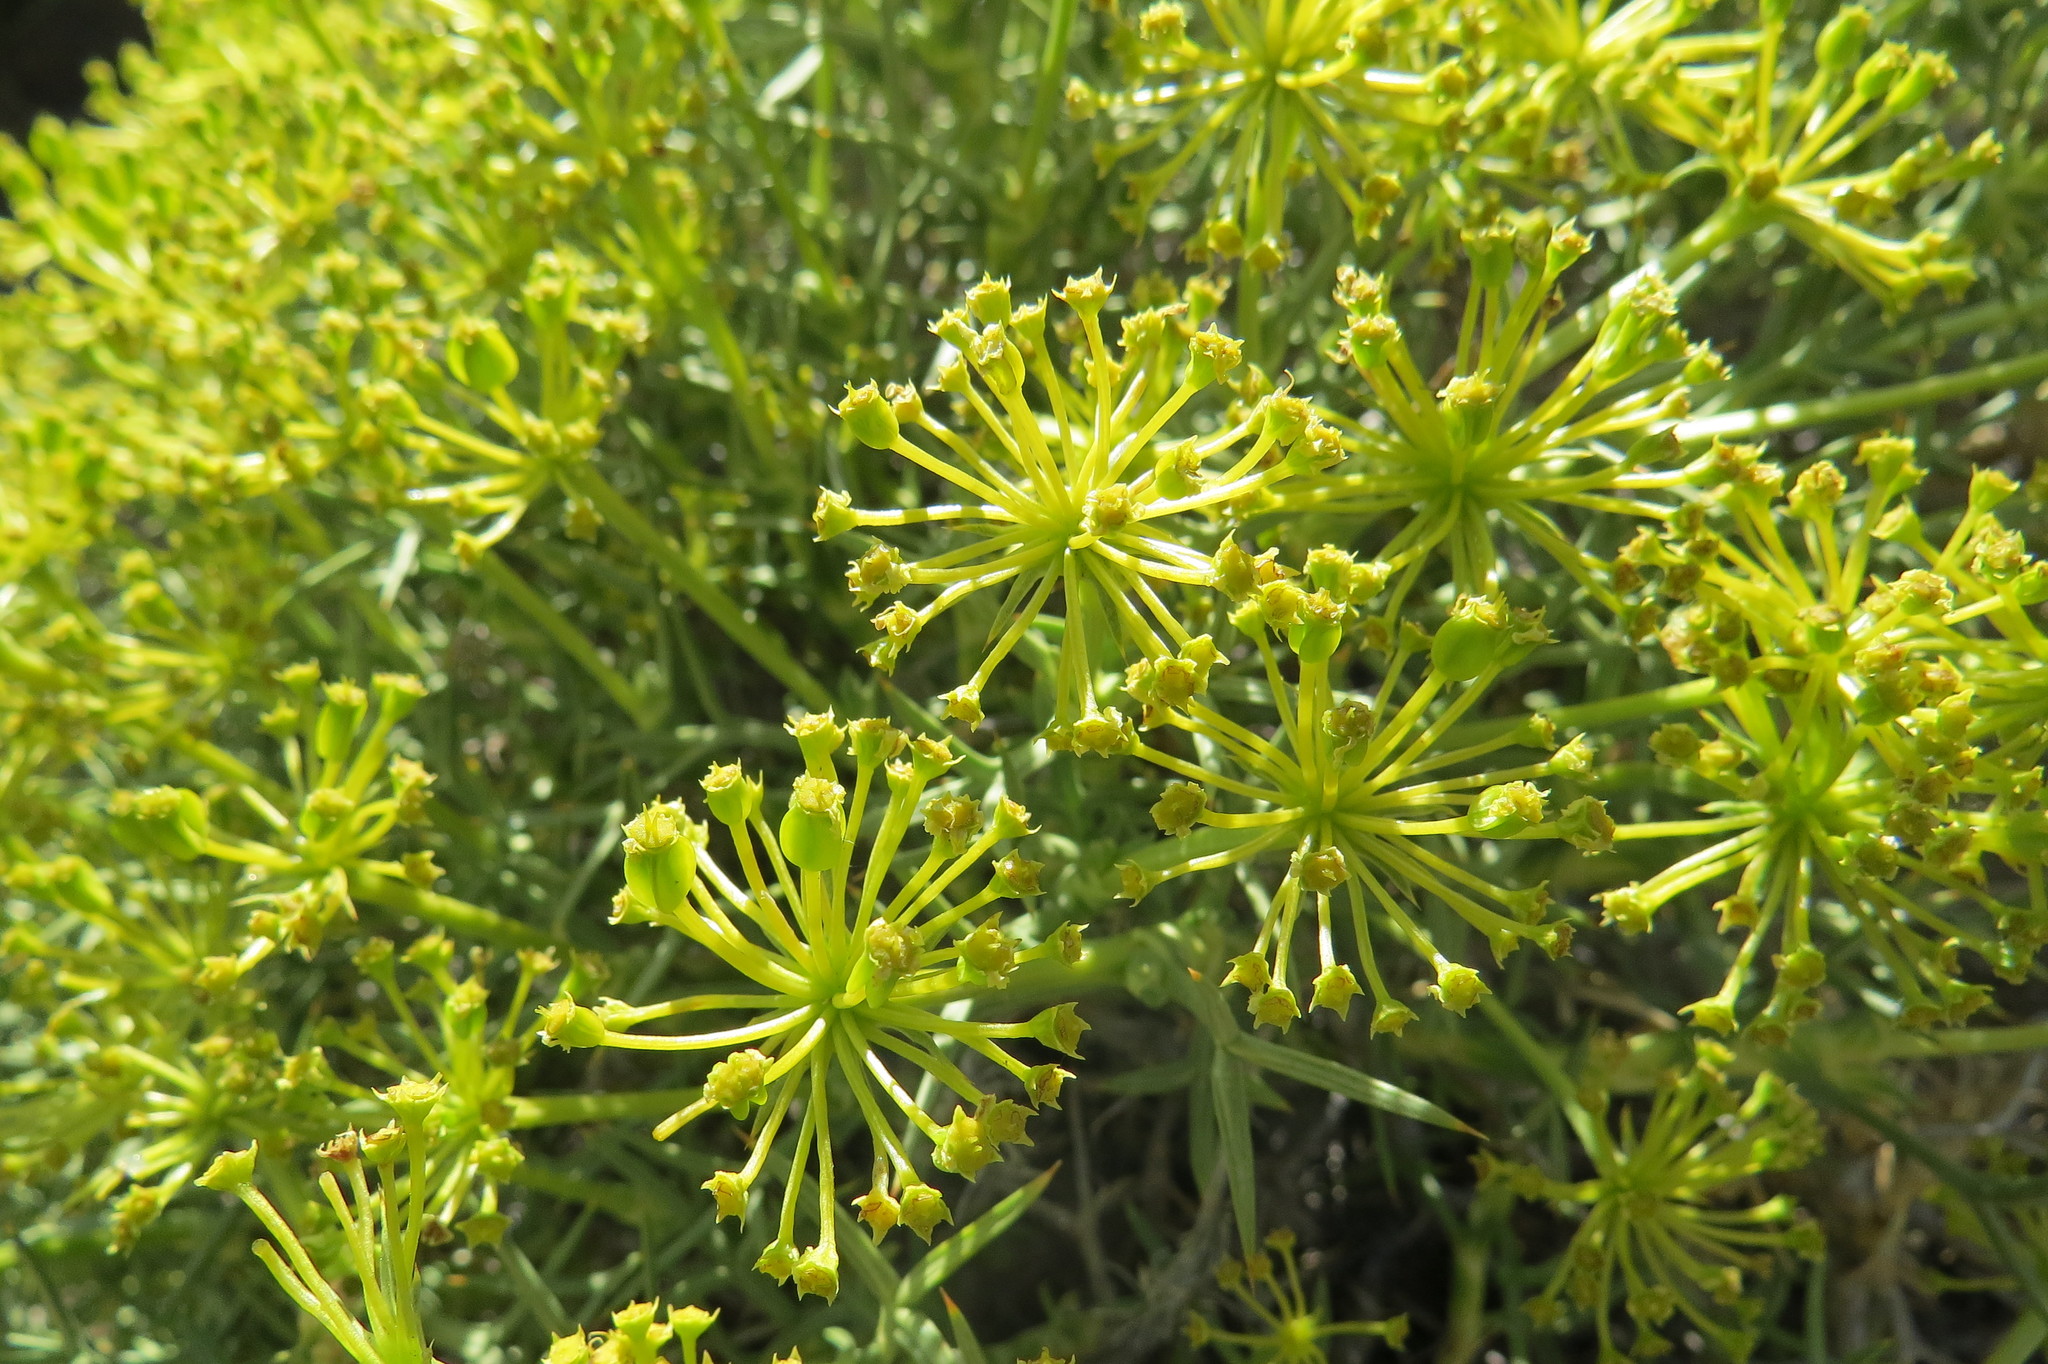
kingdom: Plantae
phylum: Tracheophyta
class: Magnoliopsida
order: Apiales
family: Apiaceae
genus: Azorella
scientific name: Azorella prolifera
